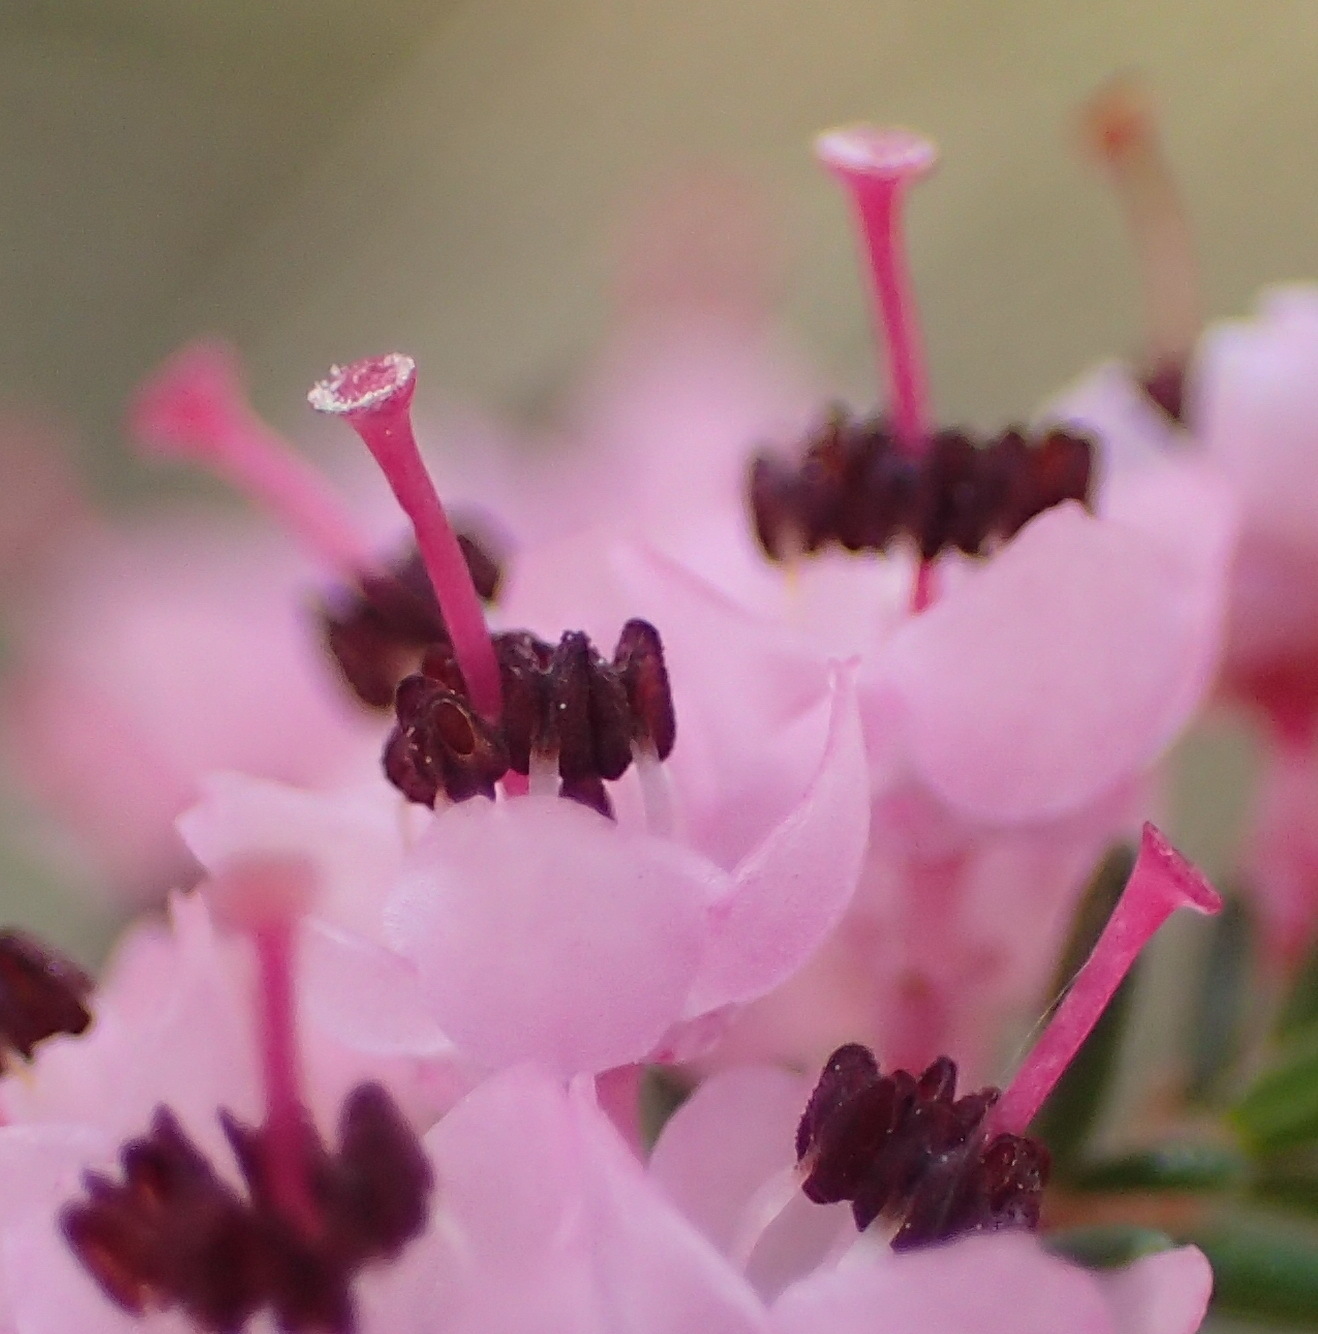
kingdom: Plantae
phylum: Tracheophyta
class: Magnoliopsida
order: Ericales
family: Ericaceae
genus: Erica
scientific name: Erica sparsa
